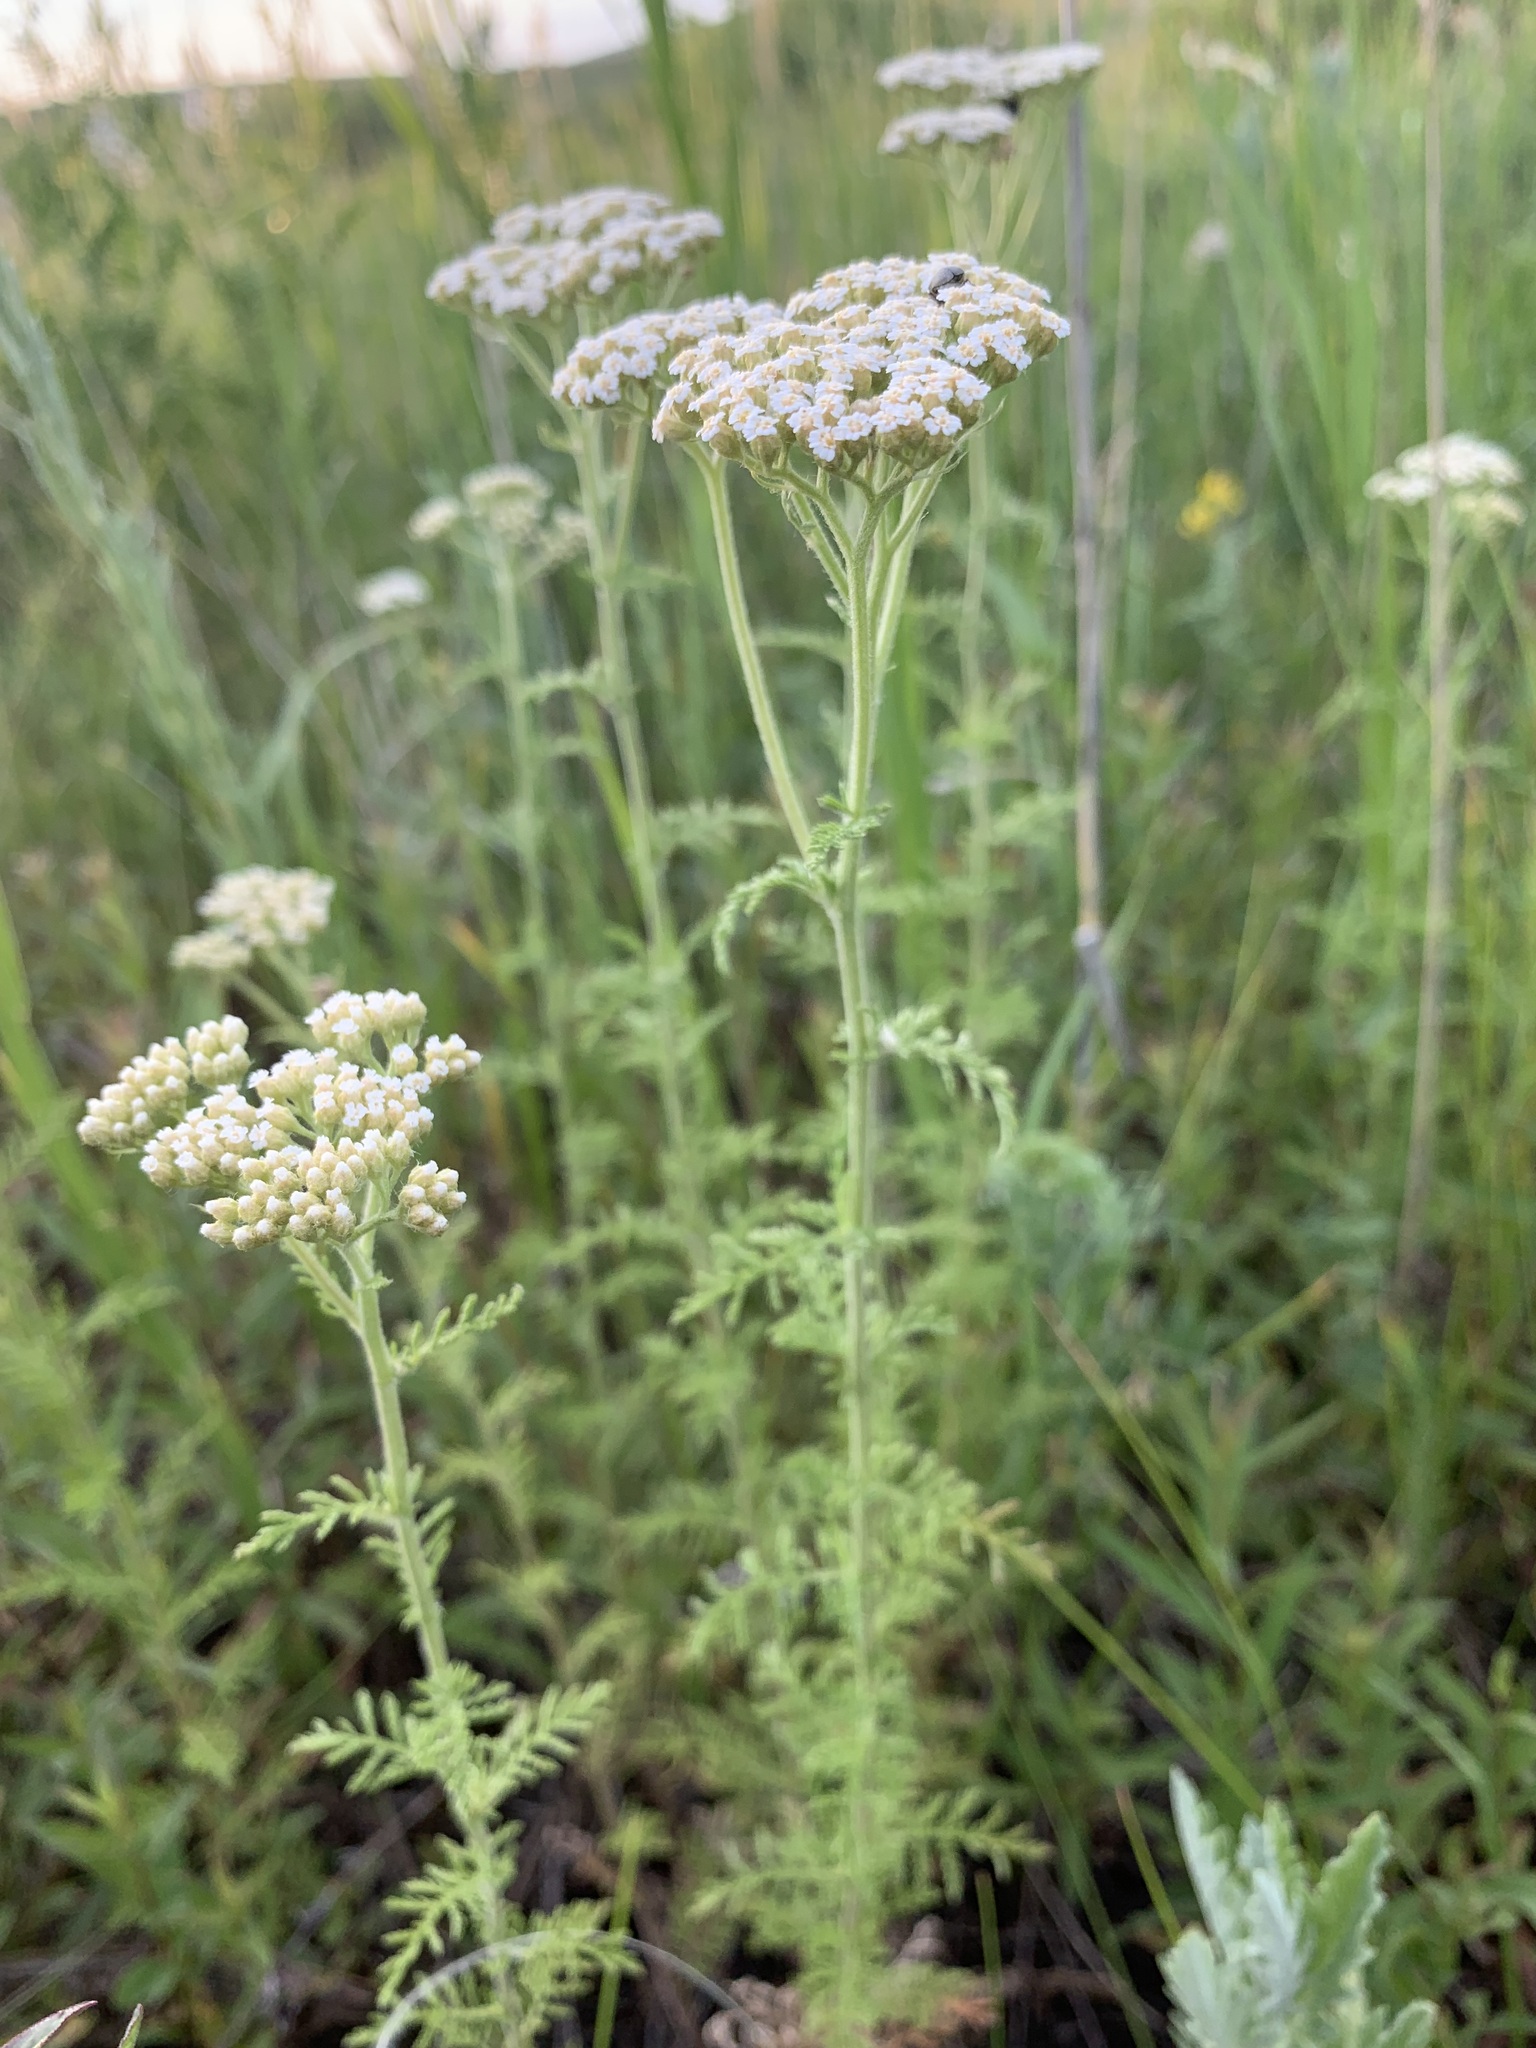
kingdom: Plantae
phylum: Tracheophyta
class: Magnoliopsida
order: Asterales
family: Asteraceae
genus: Achillea
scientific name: Achillea nobilis
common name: Noble yarrow
